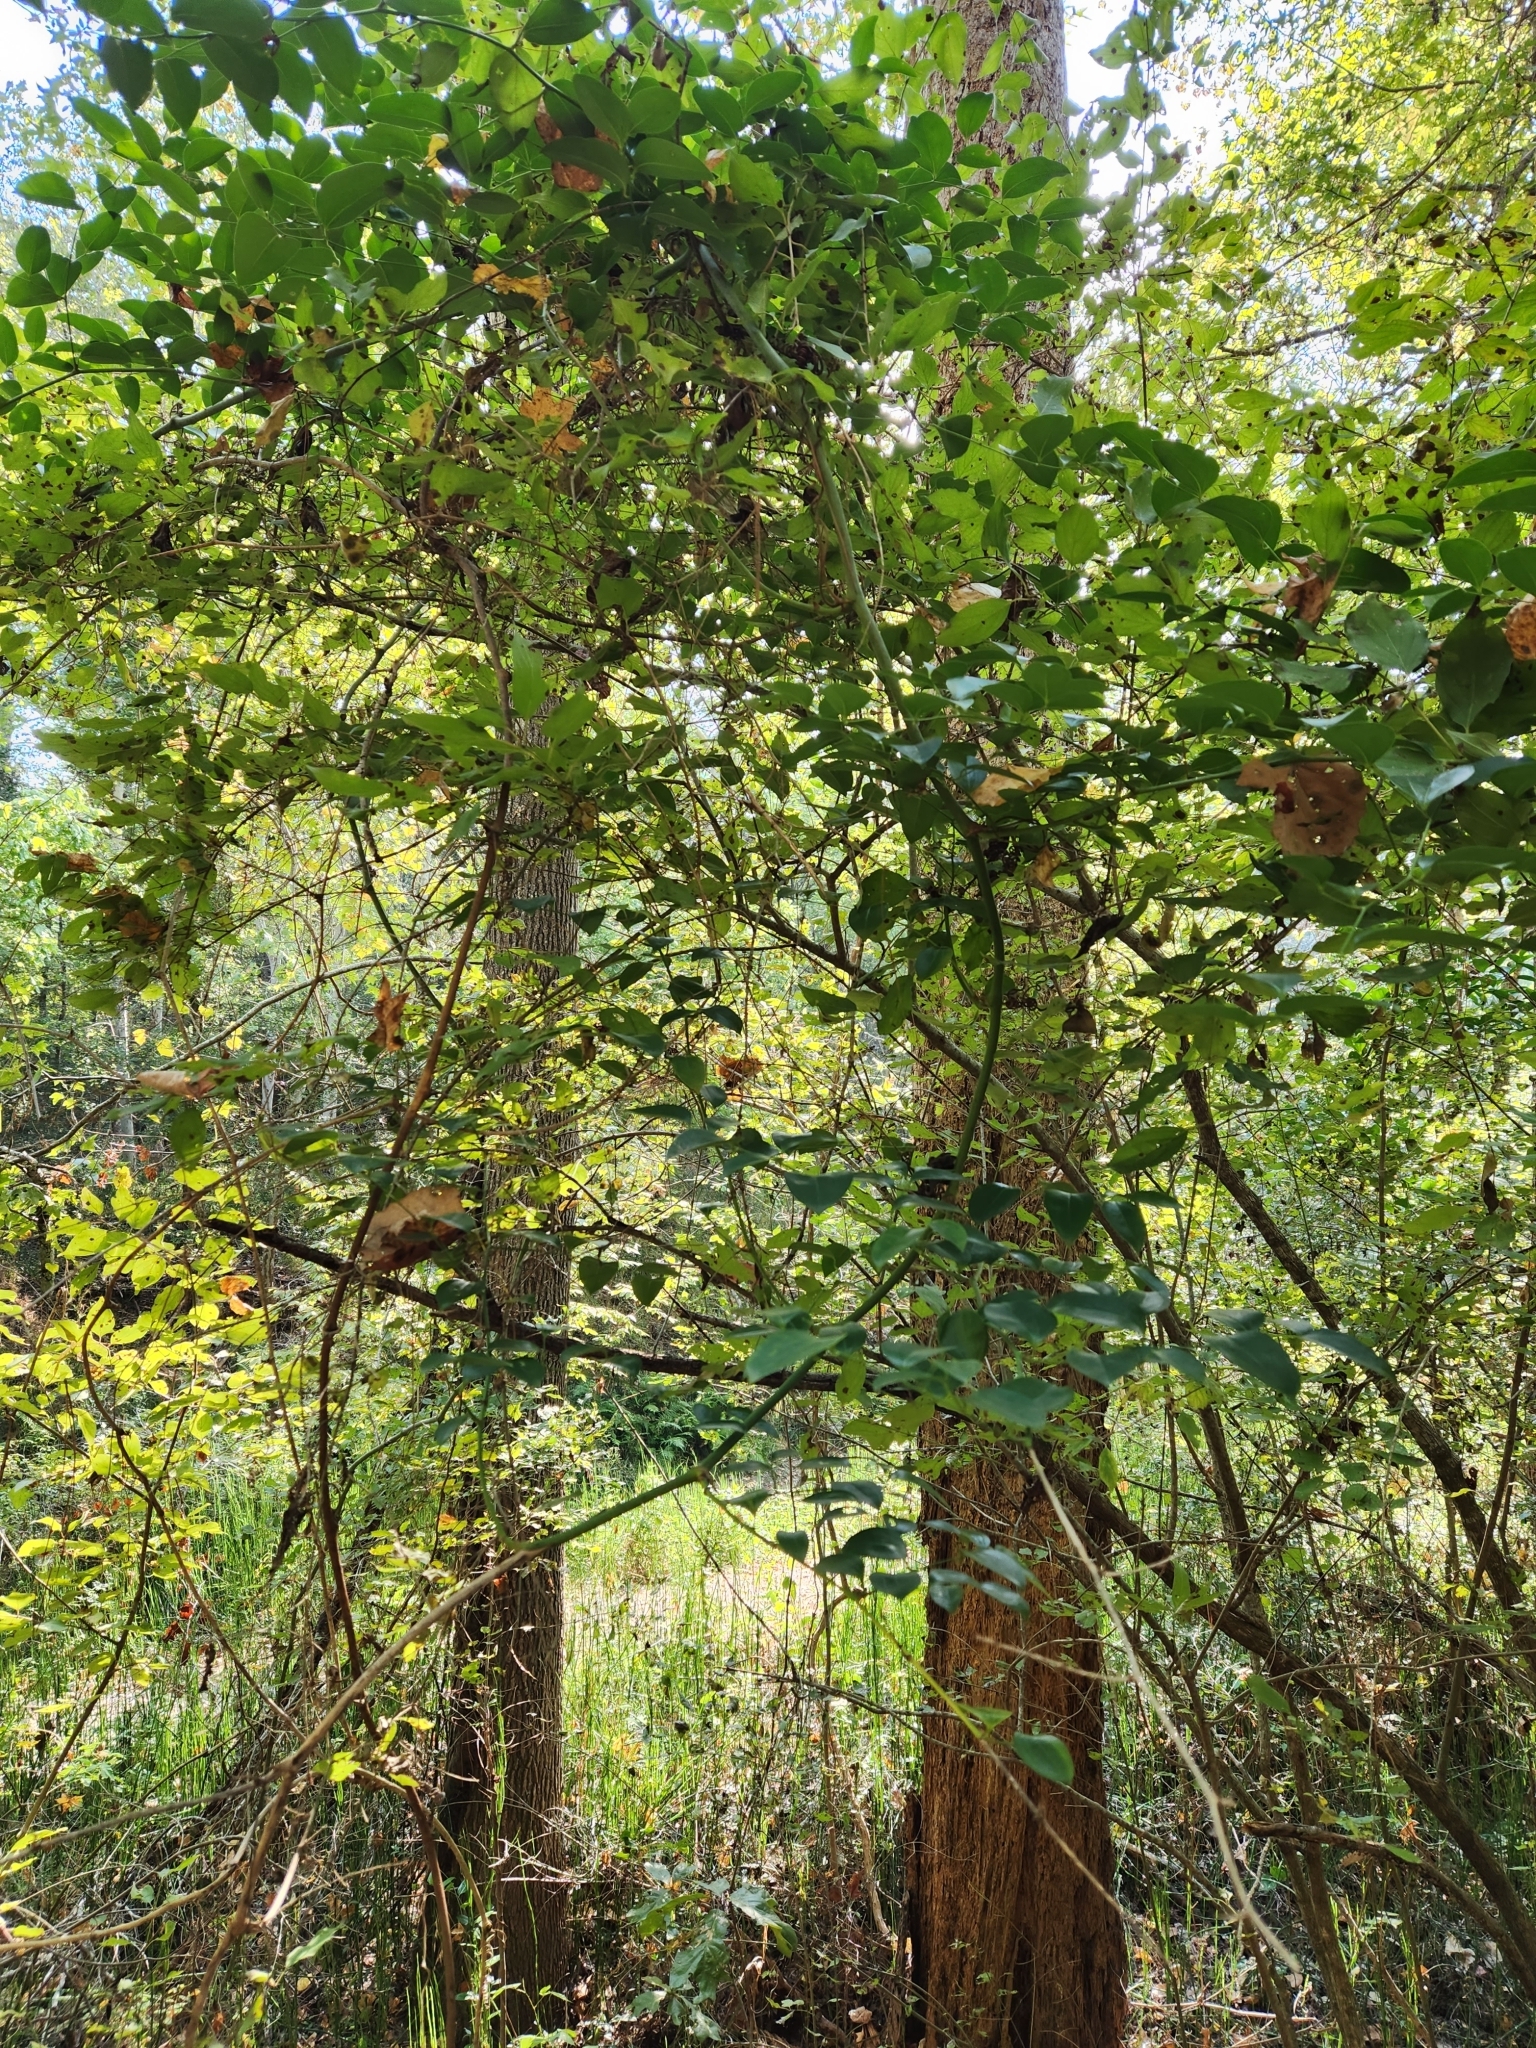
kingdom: Plantae
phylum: Tracheophyta
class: Liliopsida
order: Liliales
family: Smilacaceae
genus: Smilax
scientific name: Smilax maritima
